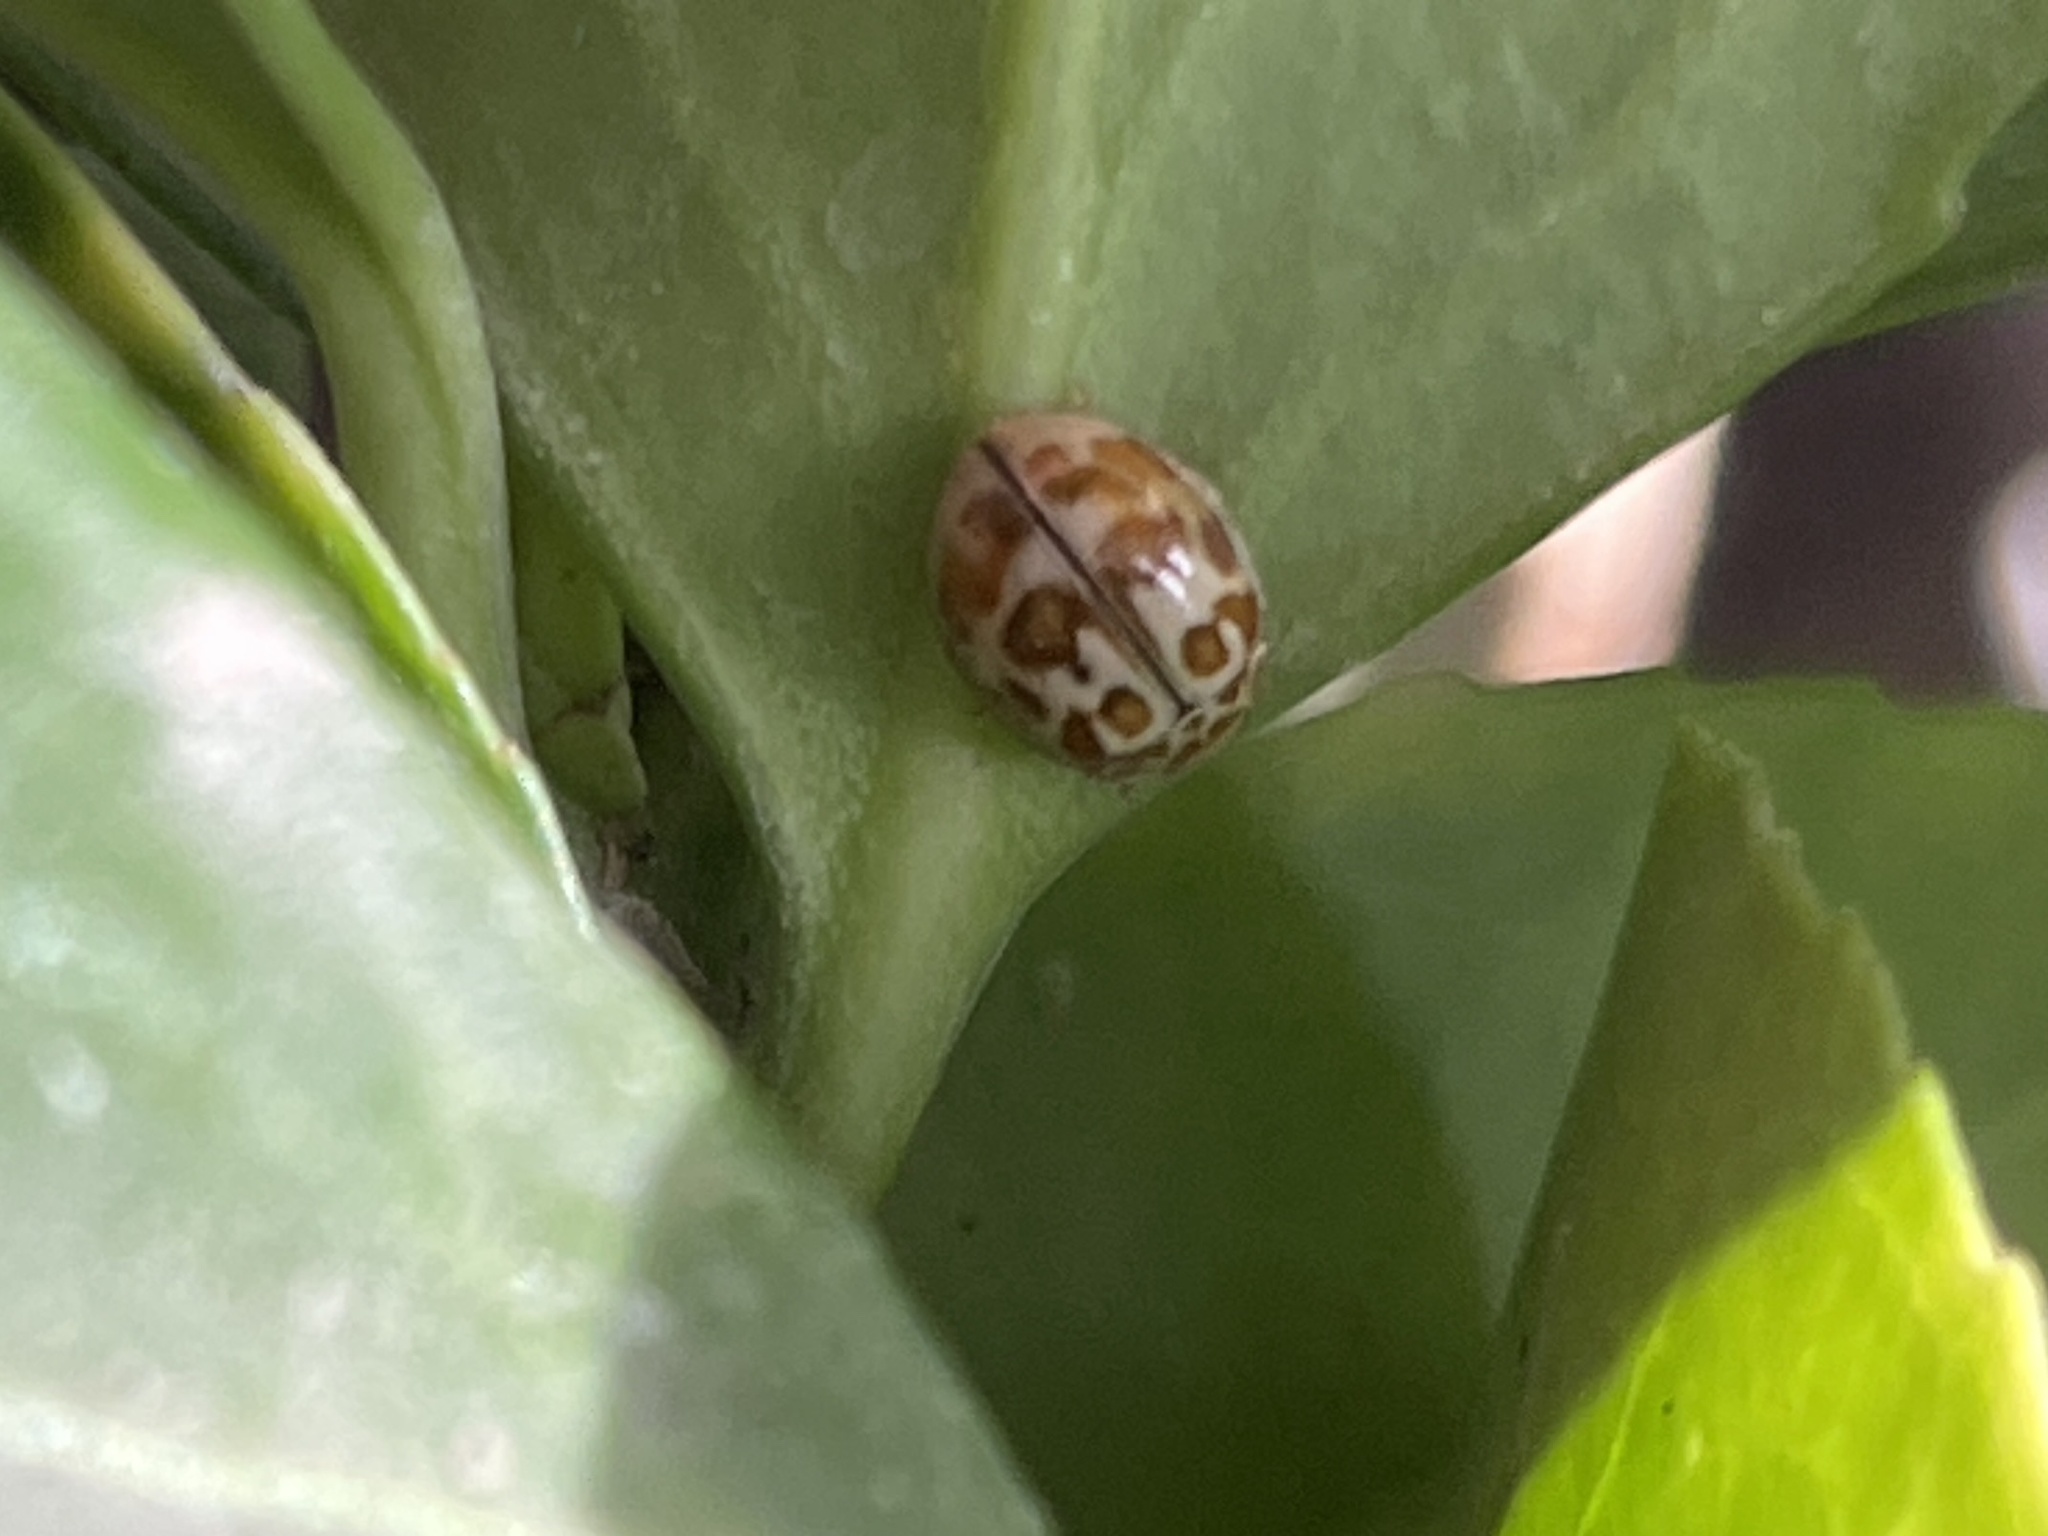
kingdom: Animalia
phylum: Arthropoda
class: Insecta
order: Coleoptera
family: Coccinellidae
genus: Oenopia
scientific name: Oenopia conglobata
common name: Ladybird beetle
